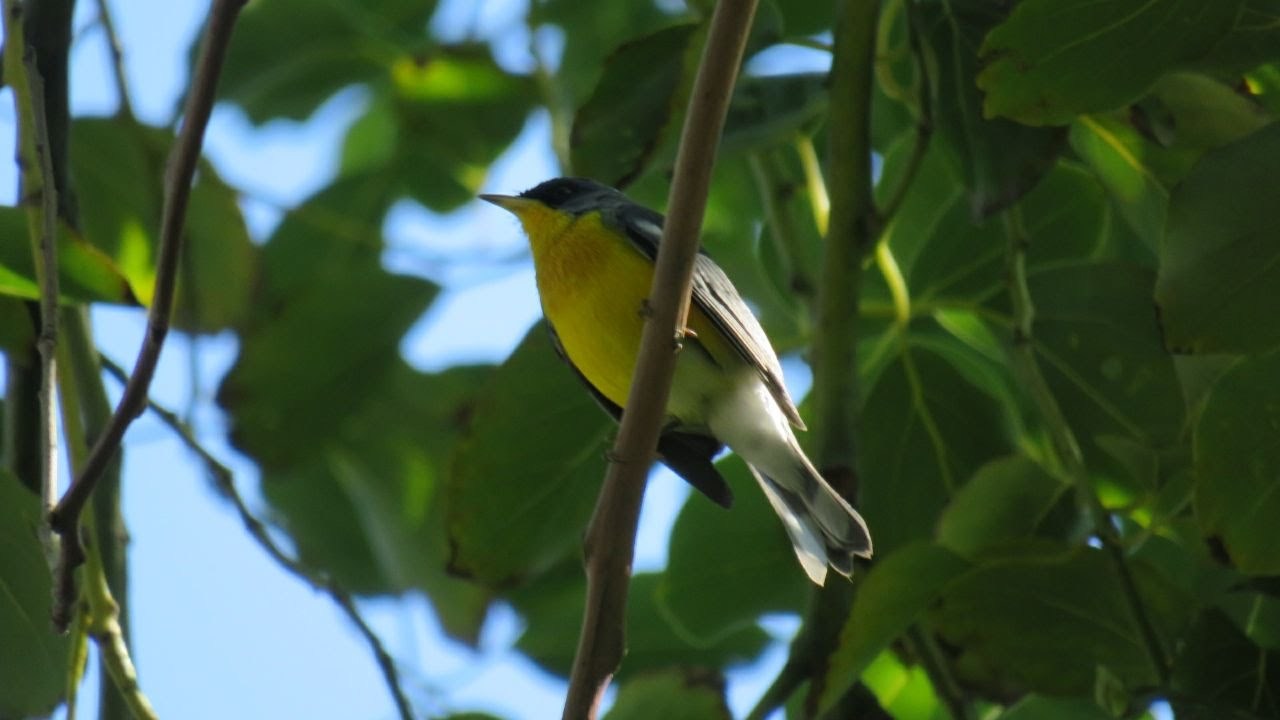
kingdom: Animalia
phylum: Chordata
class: Aves
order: Passeriformes
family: Parulidae
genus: Setophaga
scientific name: Setophaga pitiayumi
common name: Tropical parula
